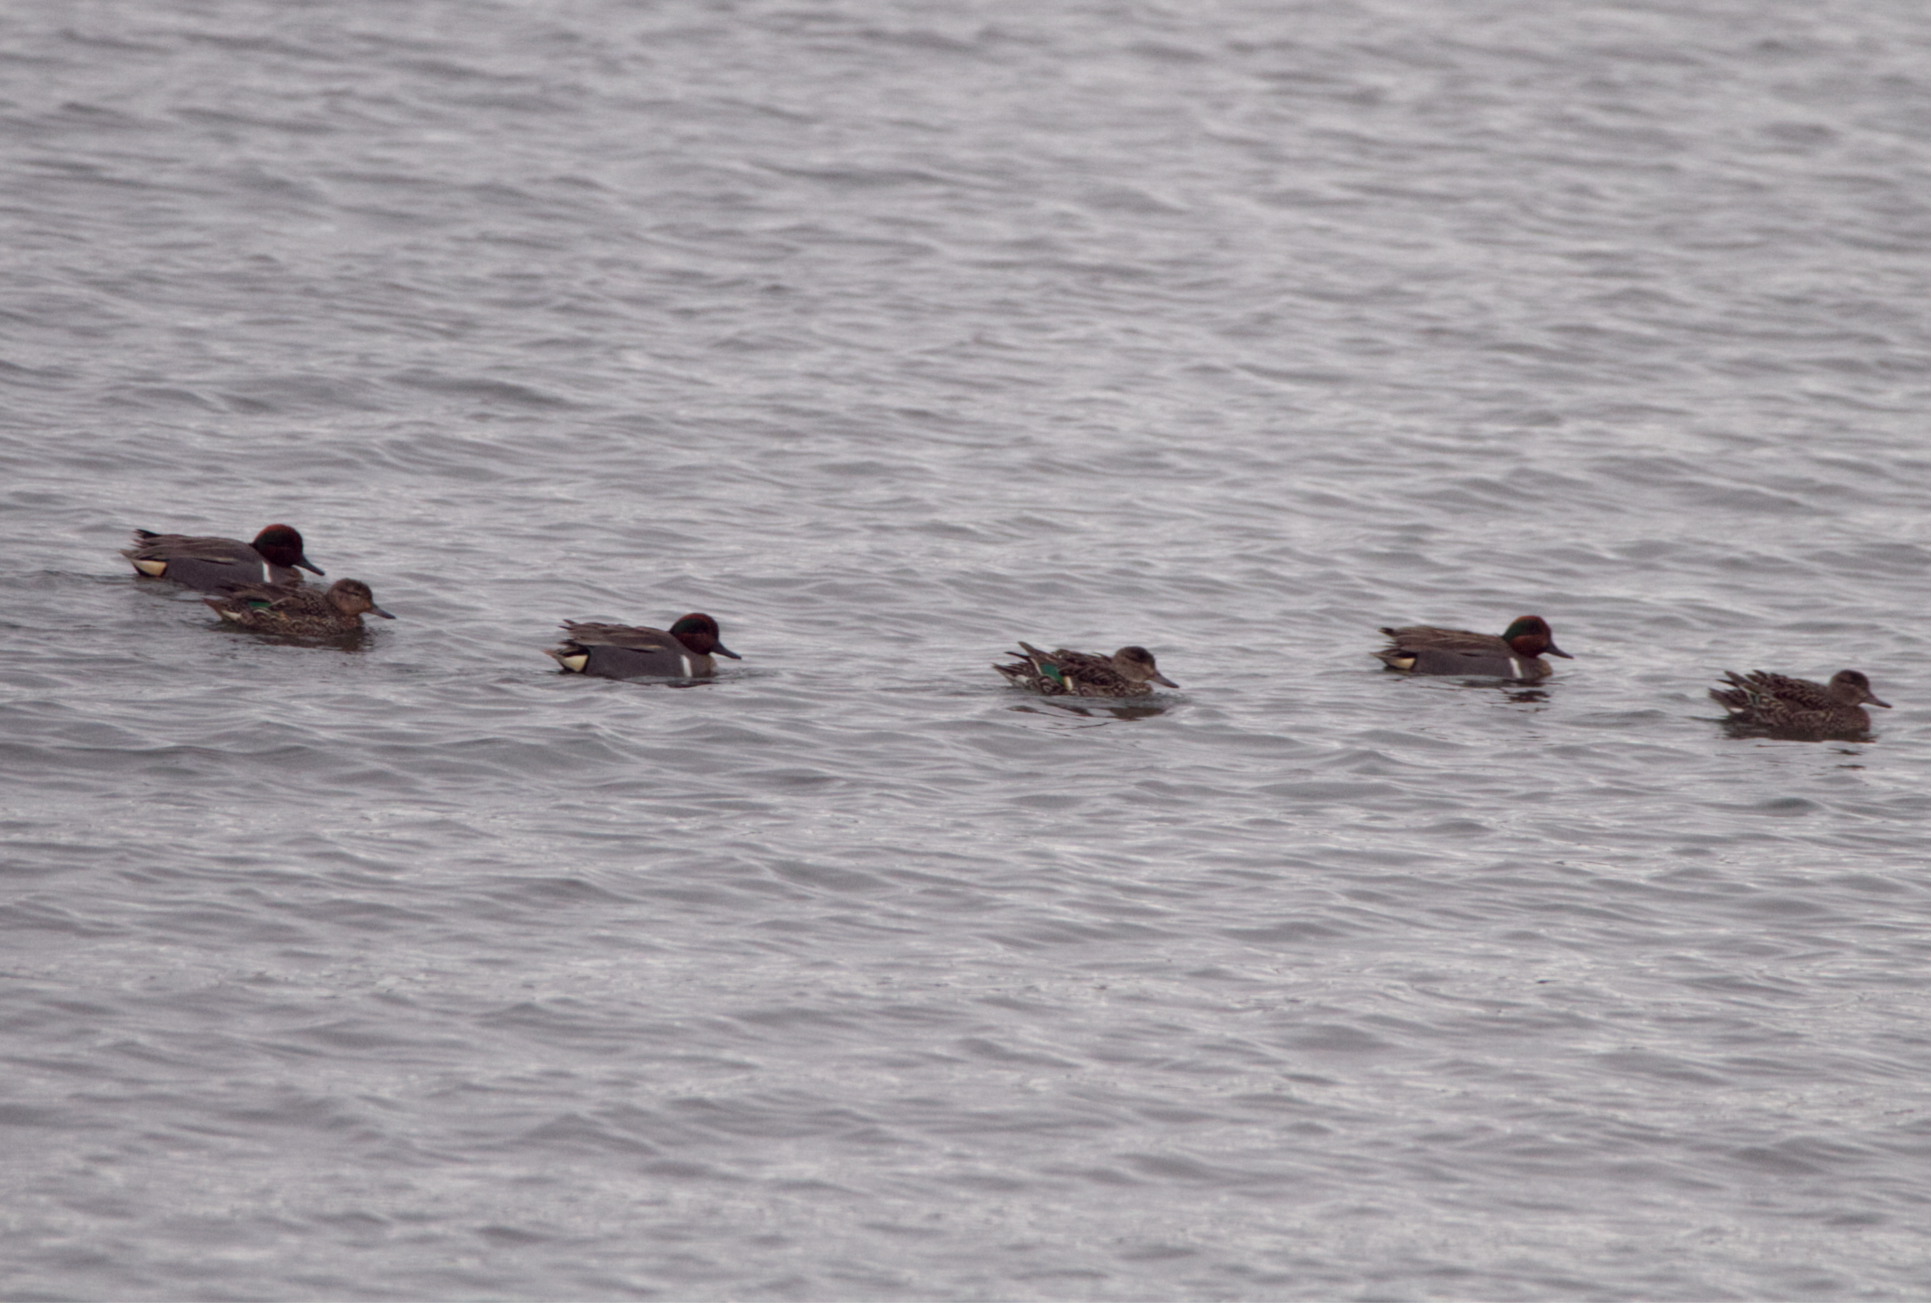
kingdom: Animalia
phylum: Chordata
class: Aves
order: Anseriformes
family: Anatidae
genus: Anas
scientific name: Anas carolinensis
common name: Green-winged teal
